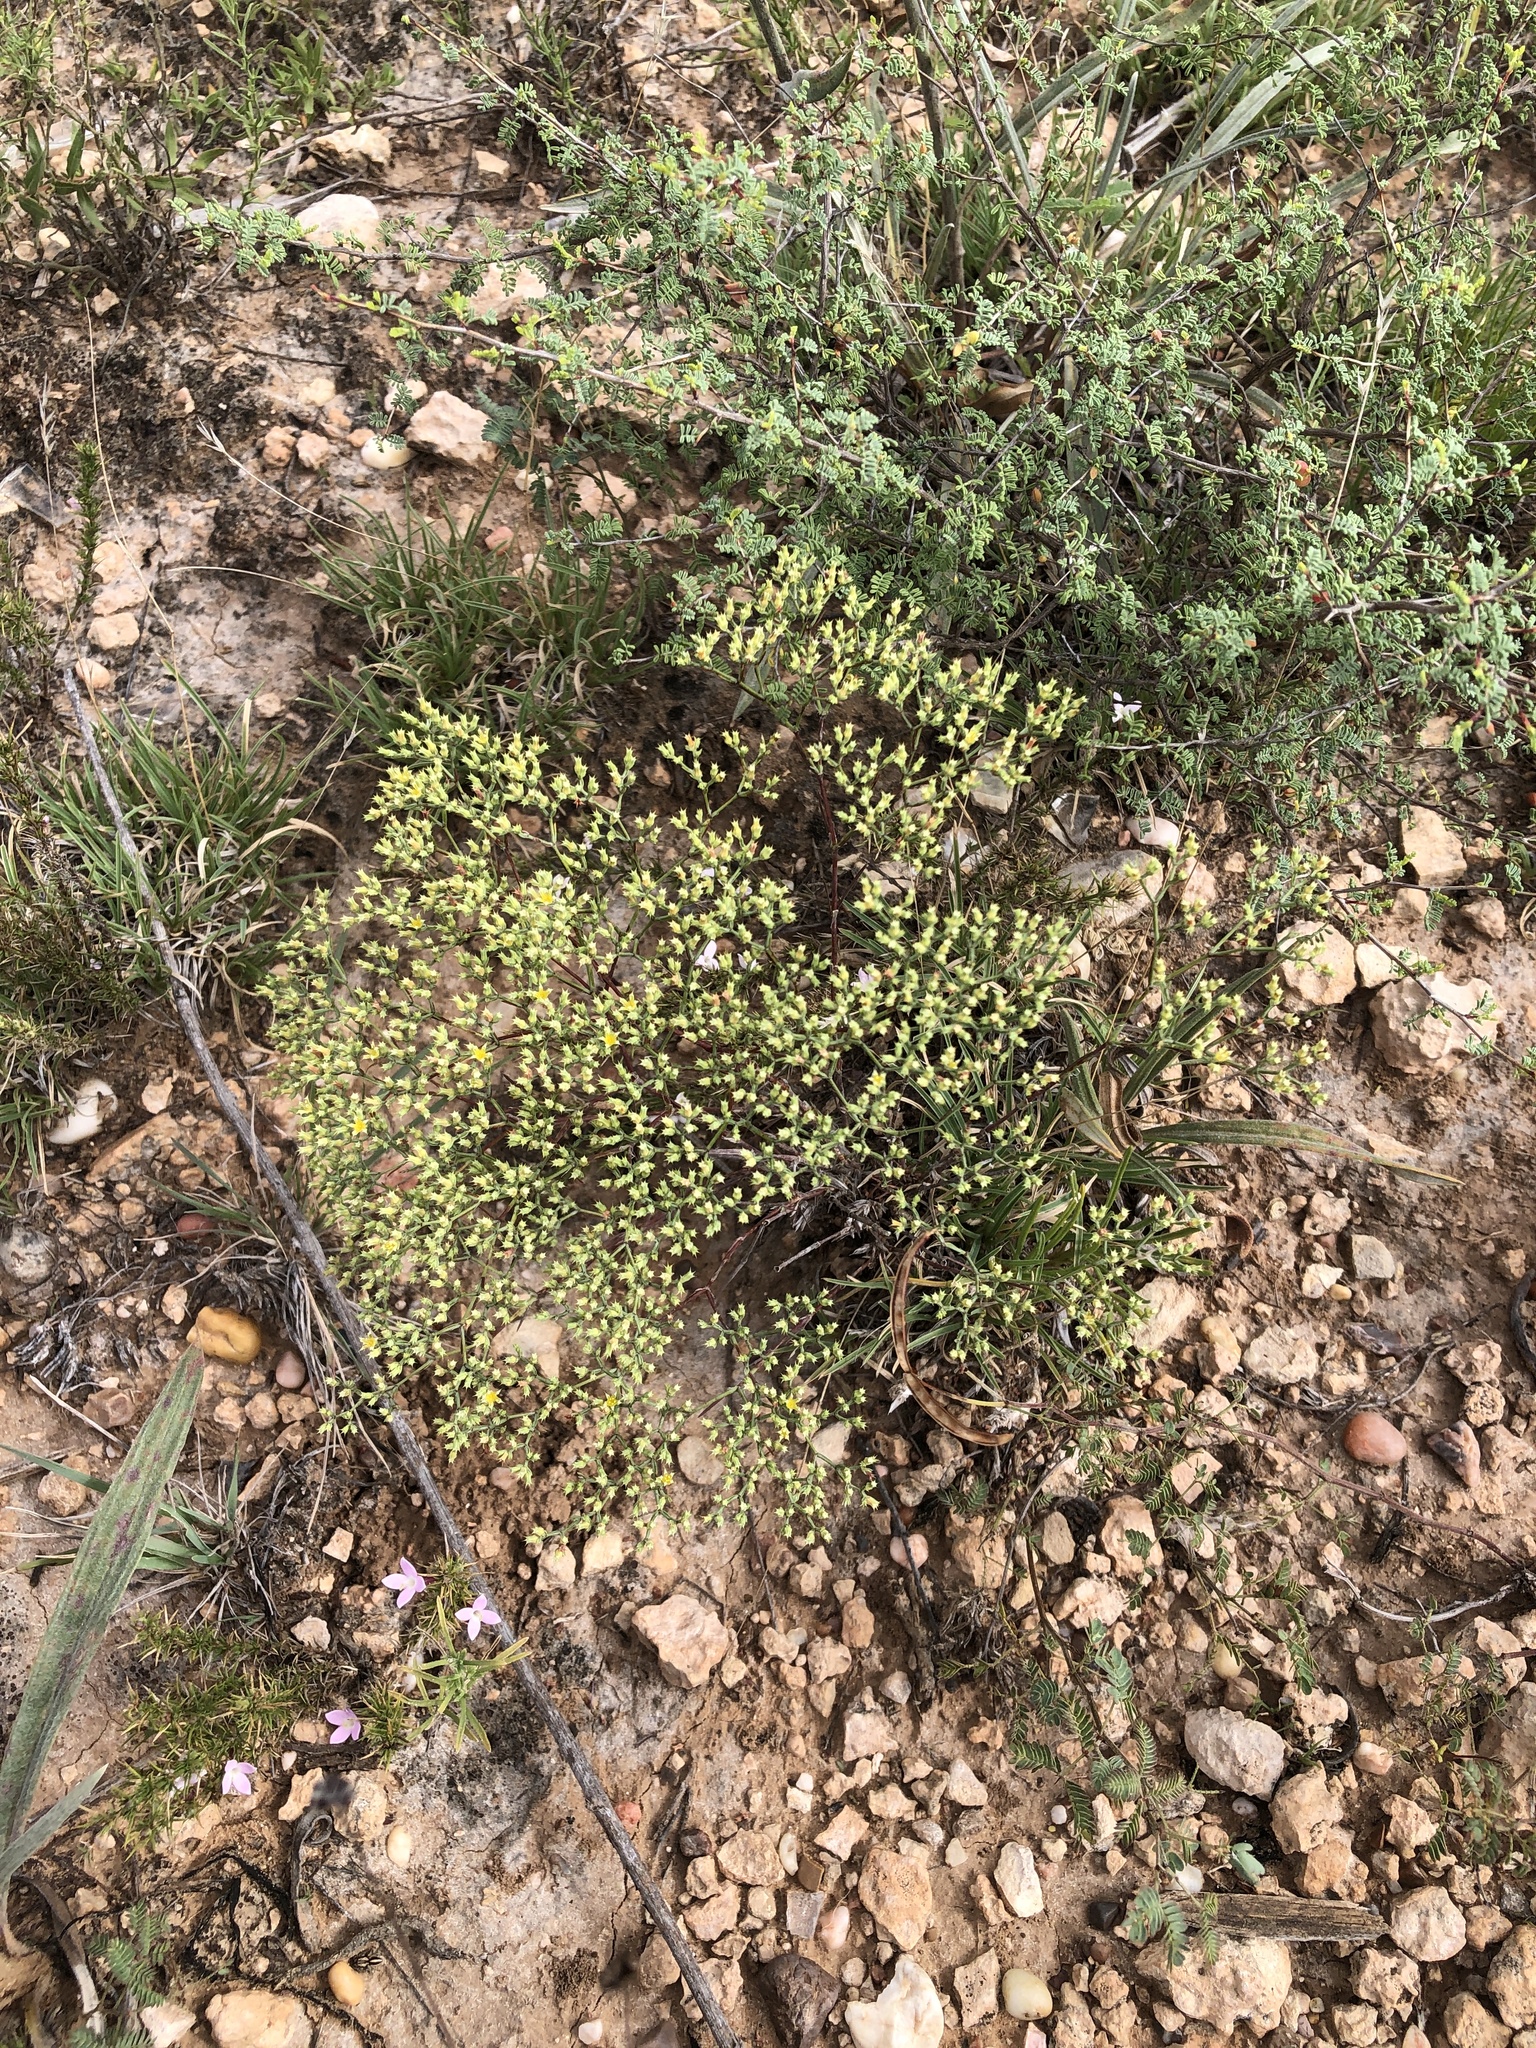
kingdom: Plantae
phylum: Tracheophyta
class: Magnoliopsida
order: Caryophyllales
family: Caryophyllaceae
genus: Paronychia
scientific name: Paronychia jamesii
